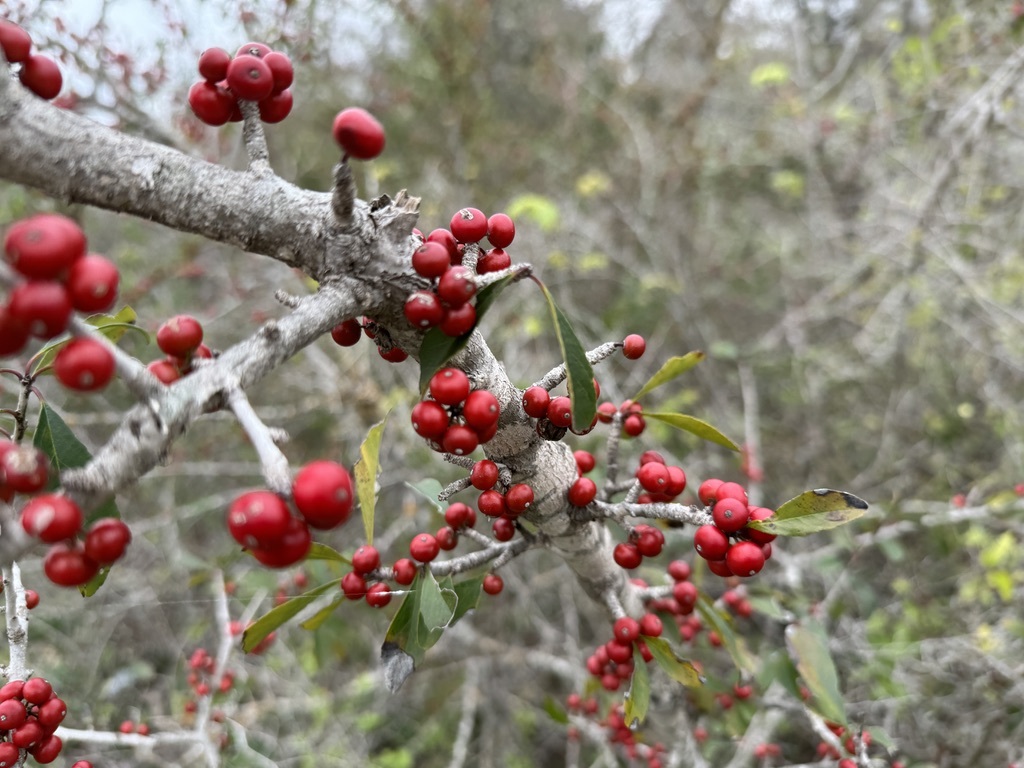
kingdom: Plantae
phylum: Tracheophyta
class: Magnoliopsida
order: Aquifoliales
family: Aquifoliaceae
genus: Ilex
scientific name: Ilex decidua
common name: Possum-haw
